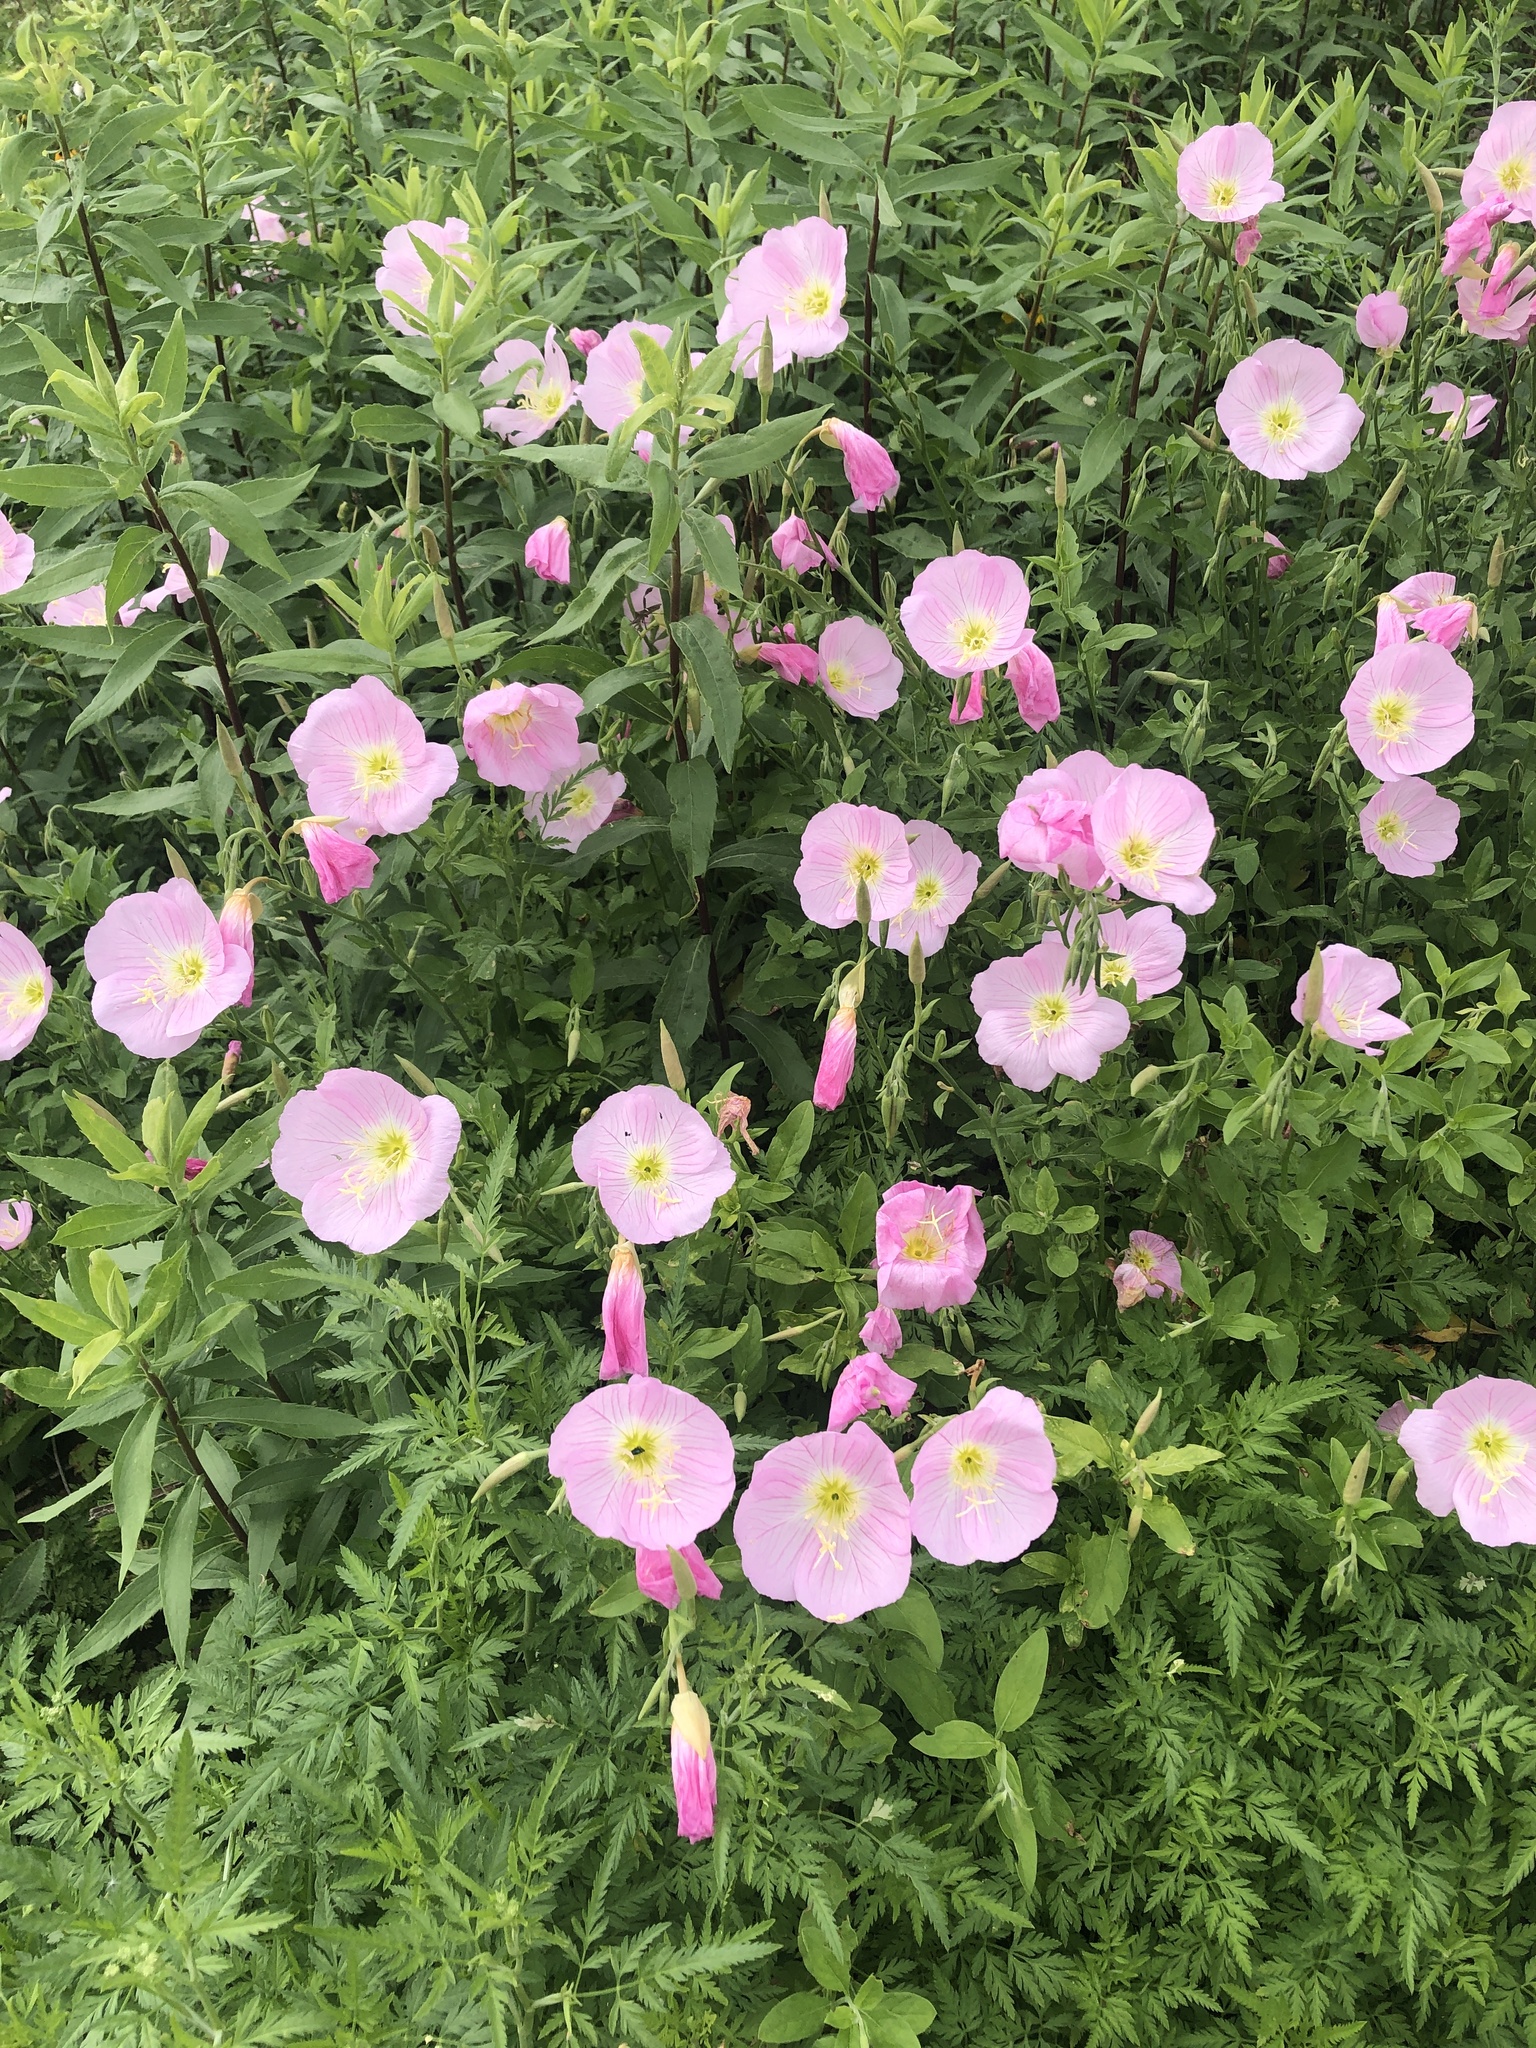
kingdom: Plantae
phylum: Tracheophyta
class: Magnoliopsida
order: Myrtales
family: Onagraceae
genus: Oenothera
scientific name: Oenothera speciosa
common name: White evening-primrose
